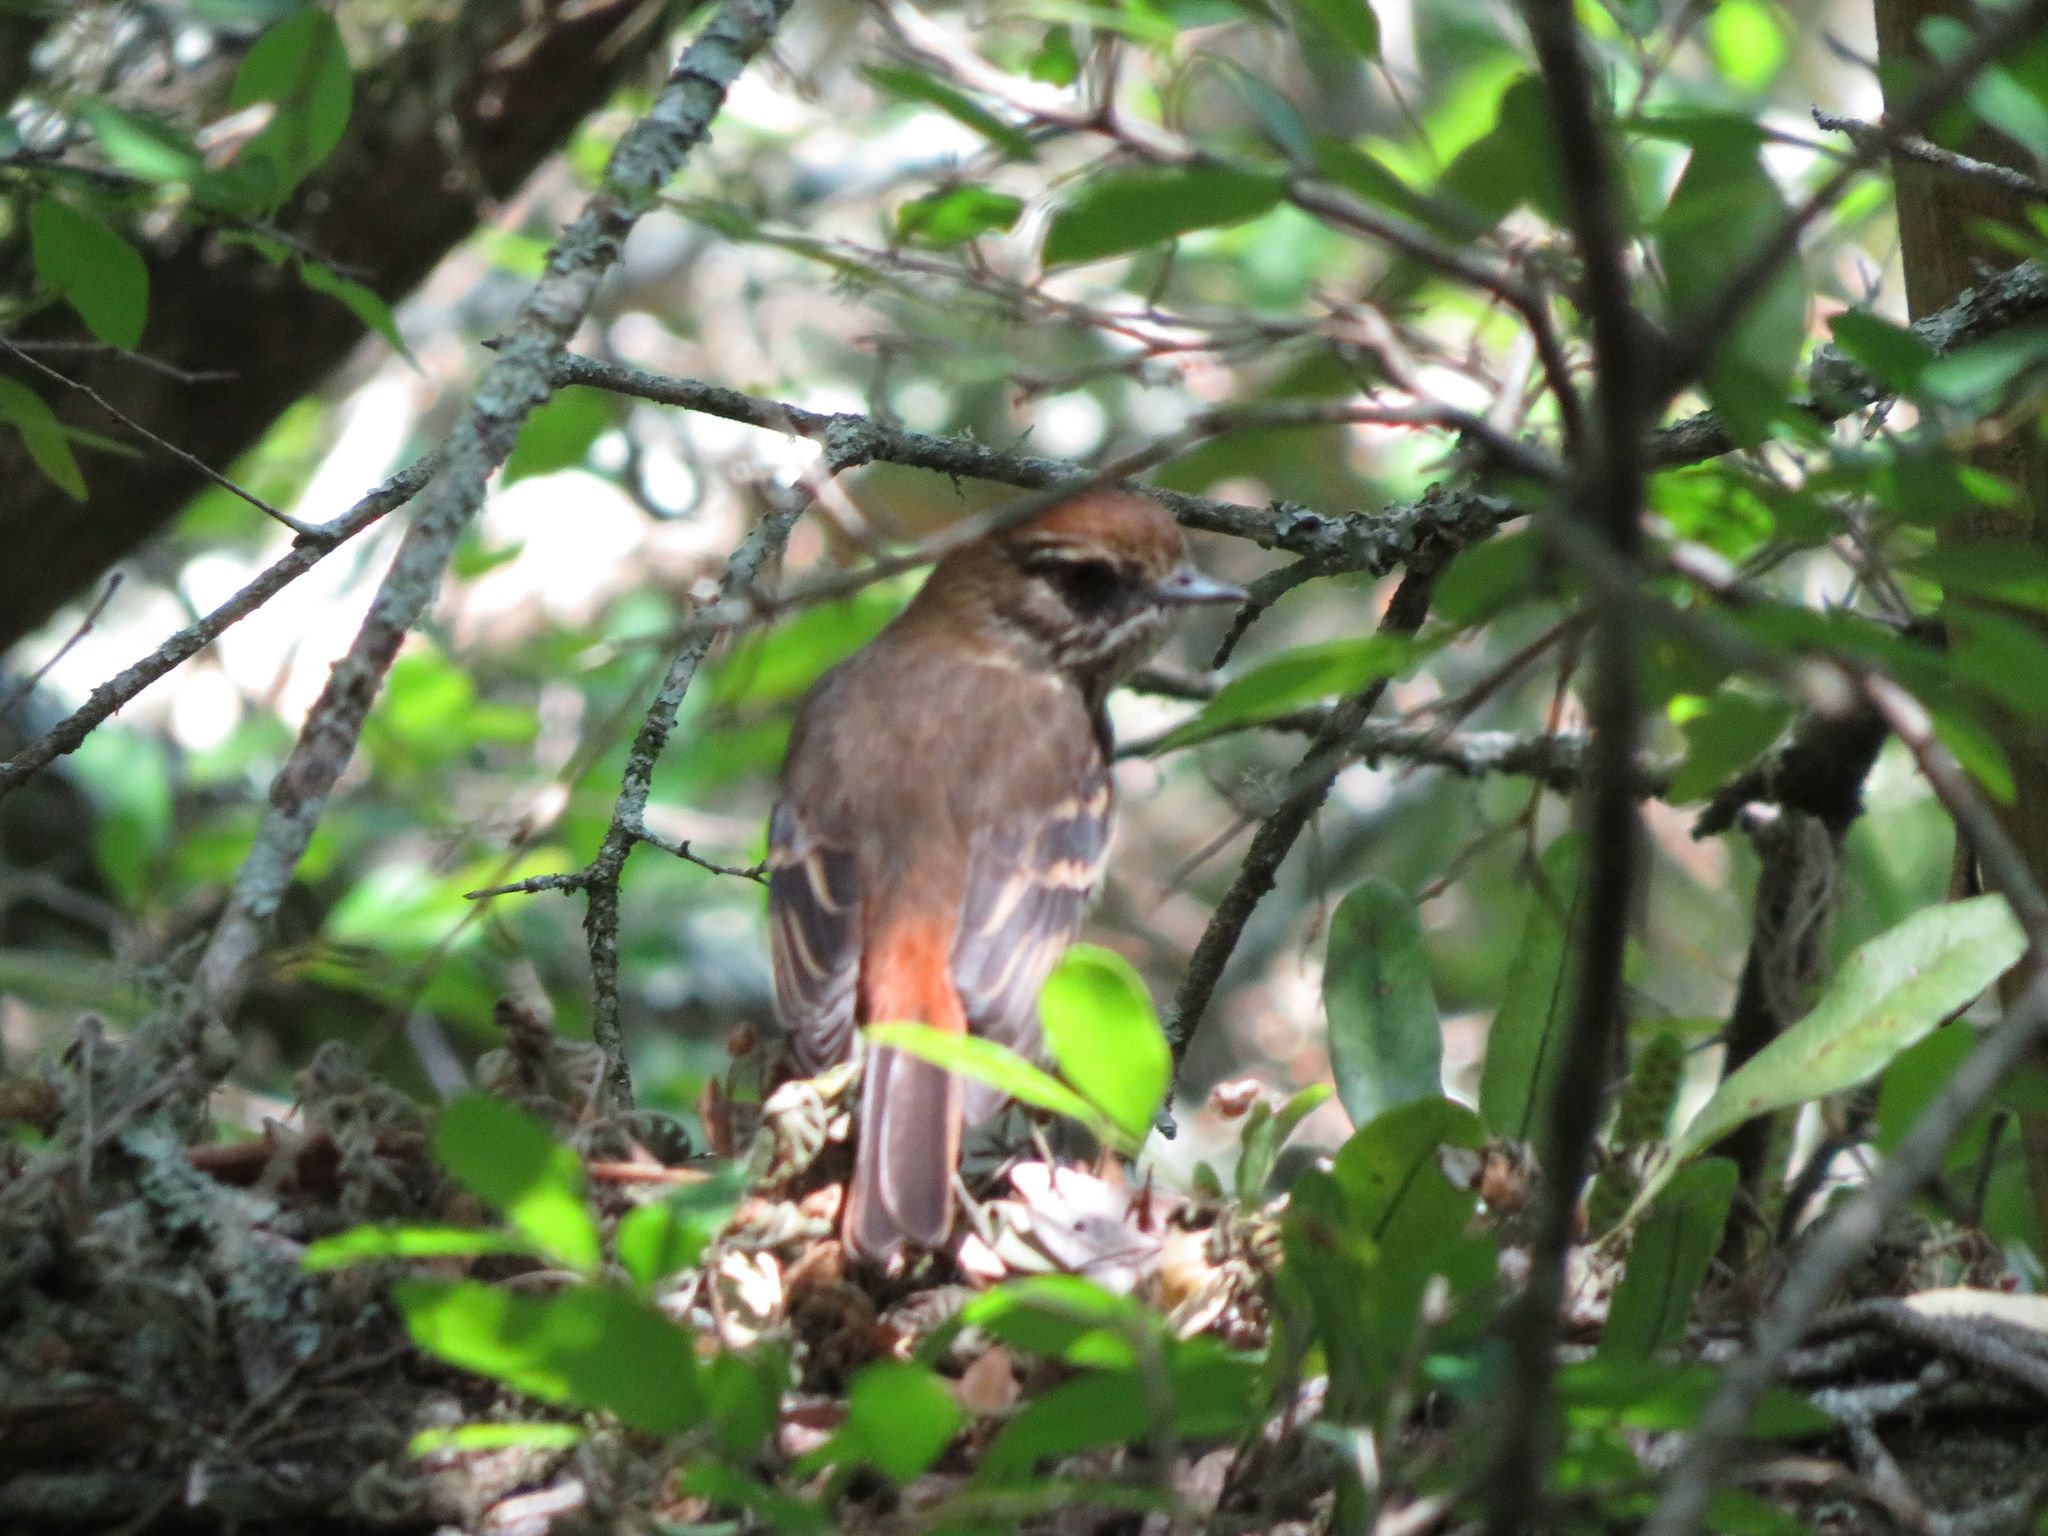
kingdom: Animalia
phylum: Chordata
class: Aves
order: Passeriformes
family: Tyrannidae
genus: Knipolegus
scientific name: Knipolegus cyanirostris
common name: Blue-billed black tyrant
